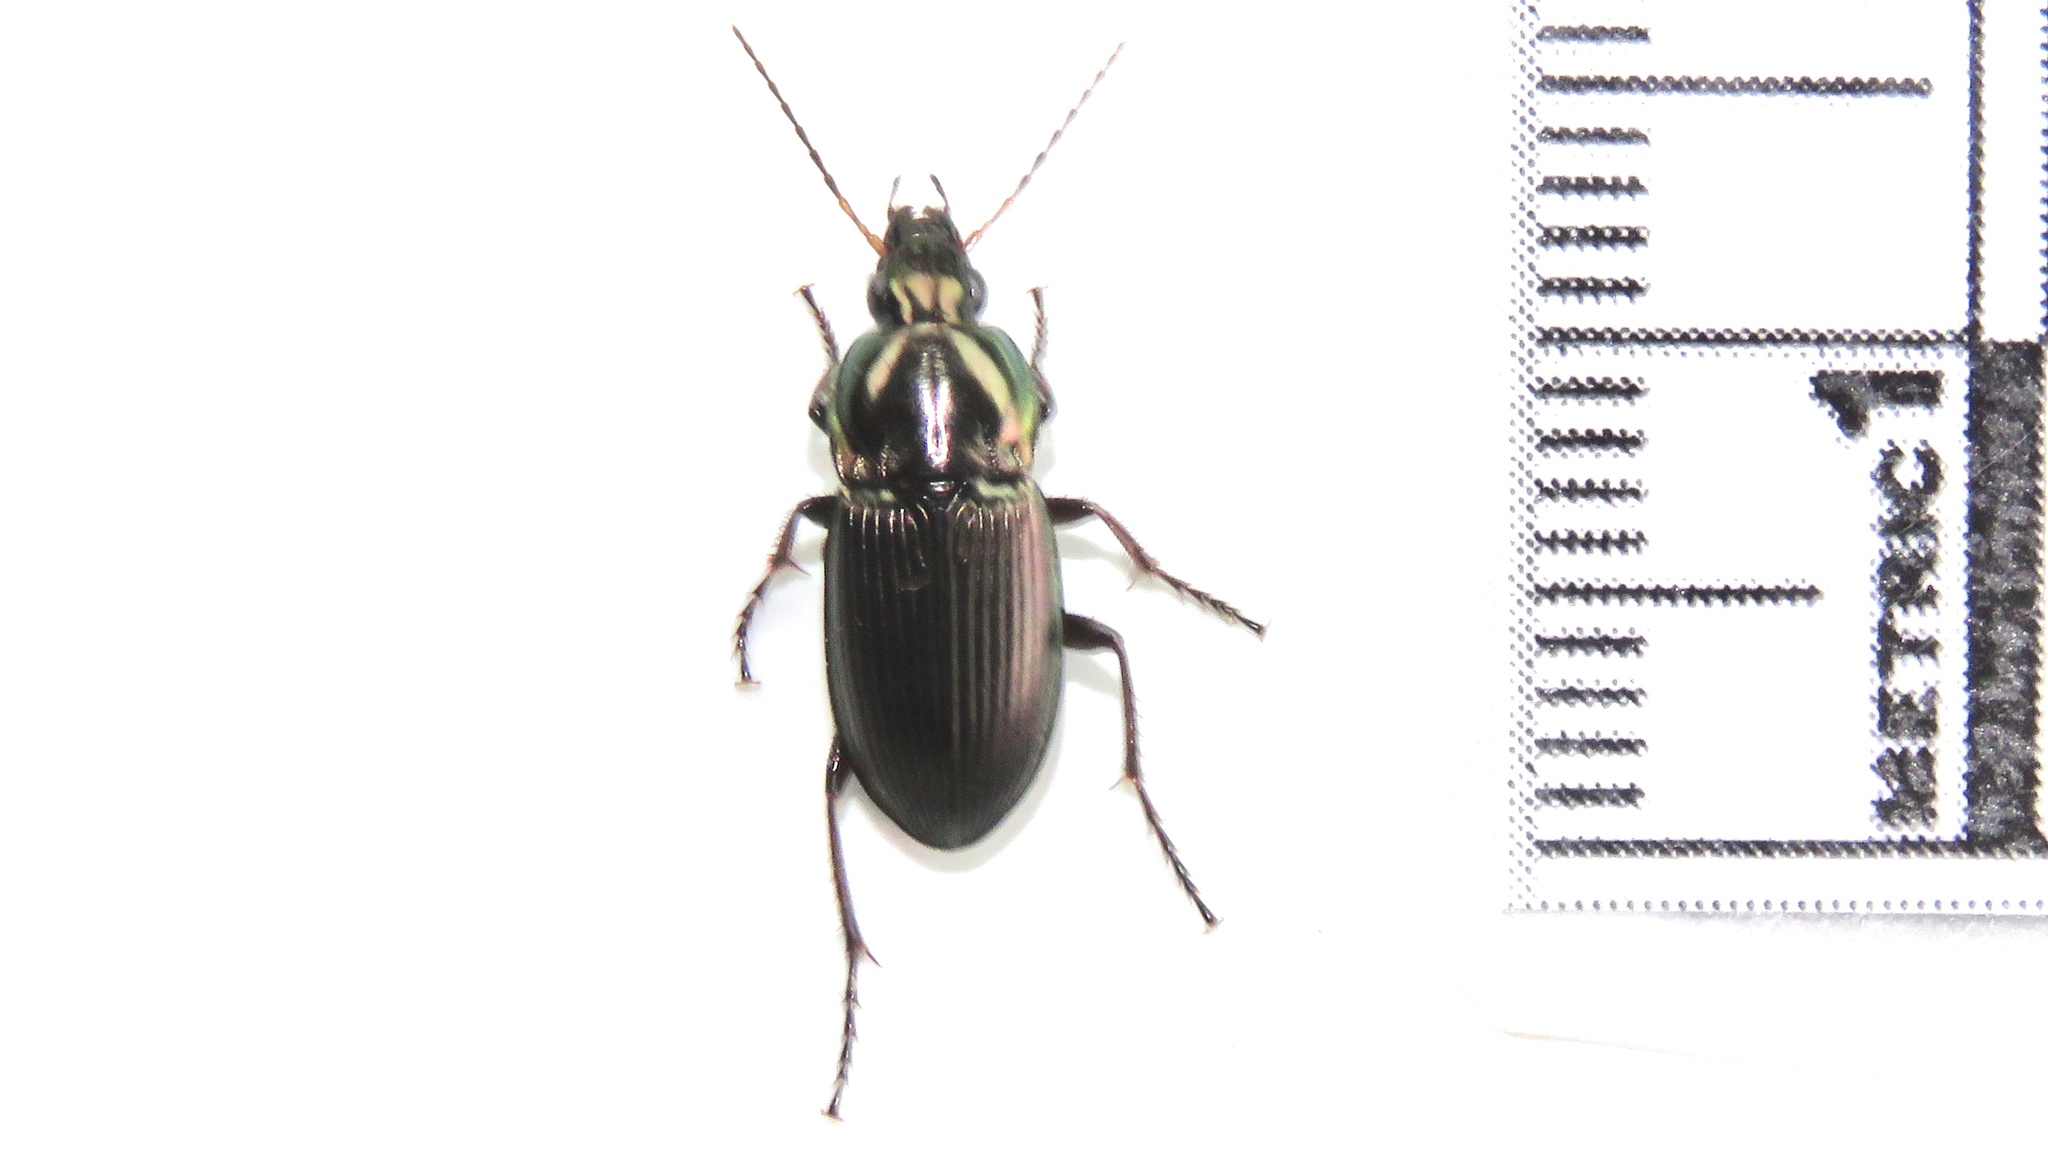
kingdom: Animalia
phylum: Arthropoda
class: Insecta
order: Coleoptera
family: Carabidae
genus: Poecilus
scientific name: Poecilus lucublandus
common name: Woodland ground beetle
